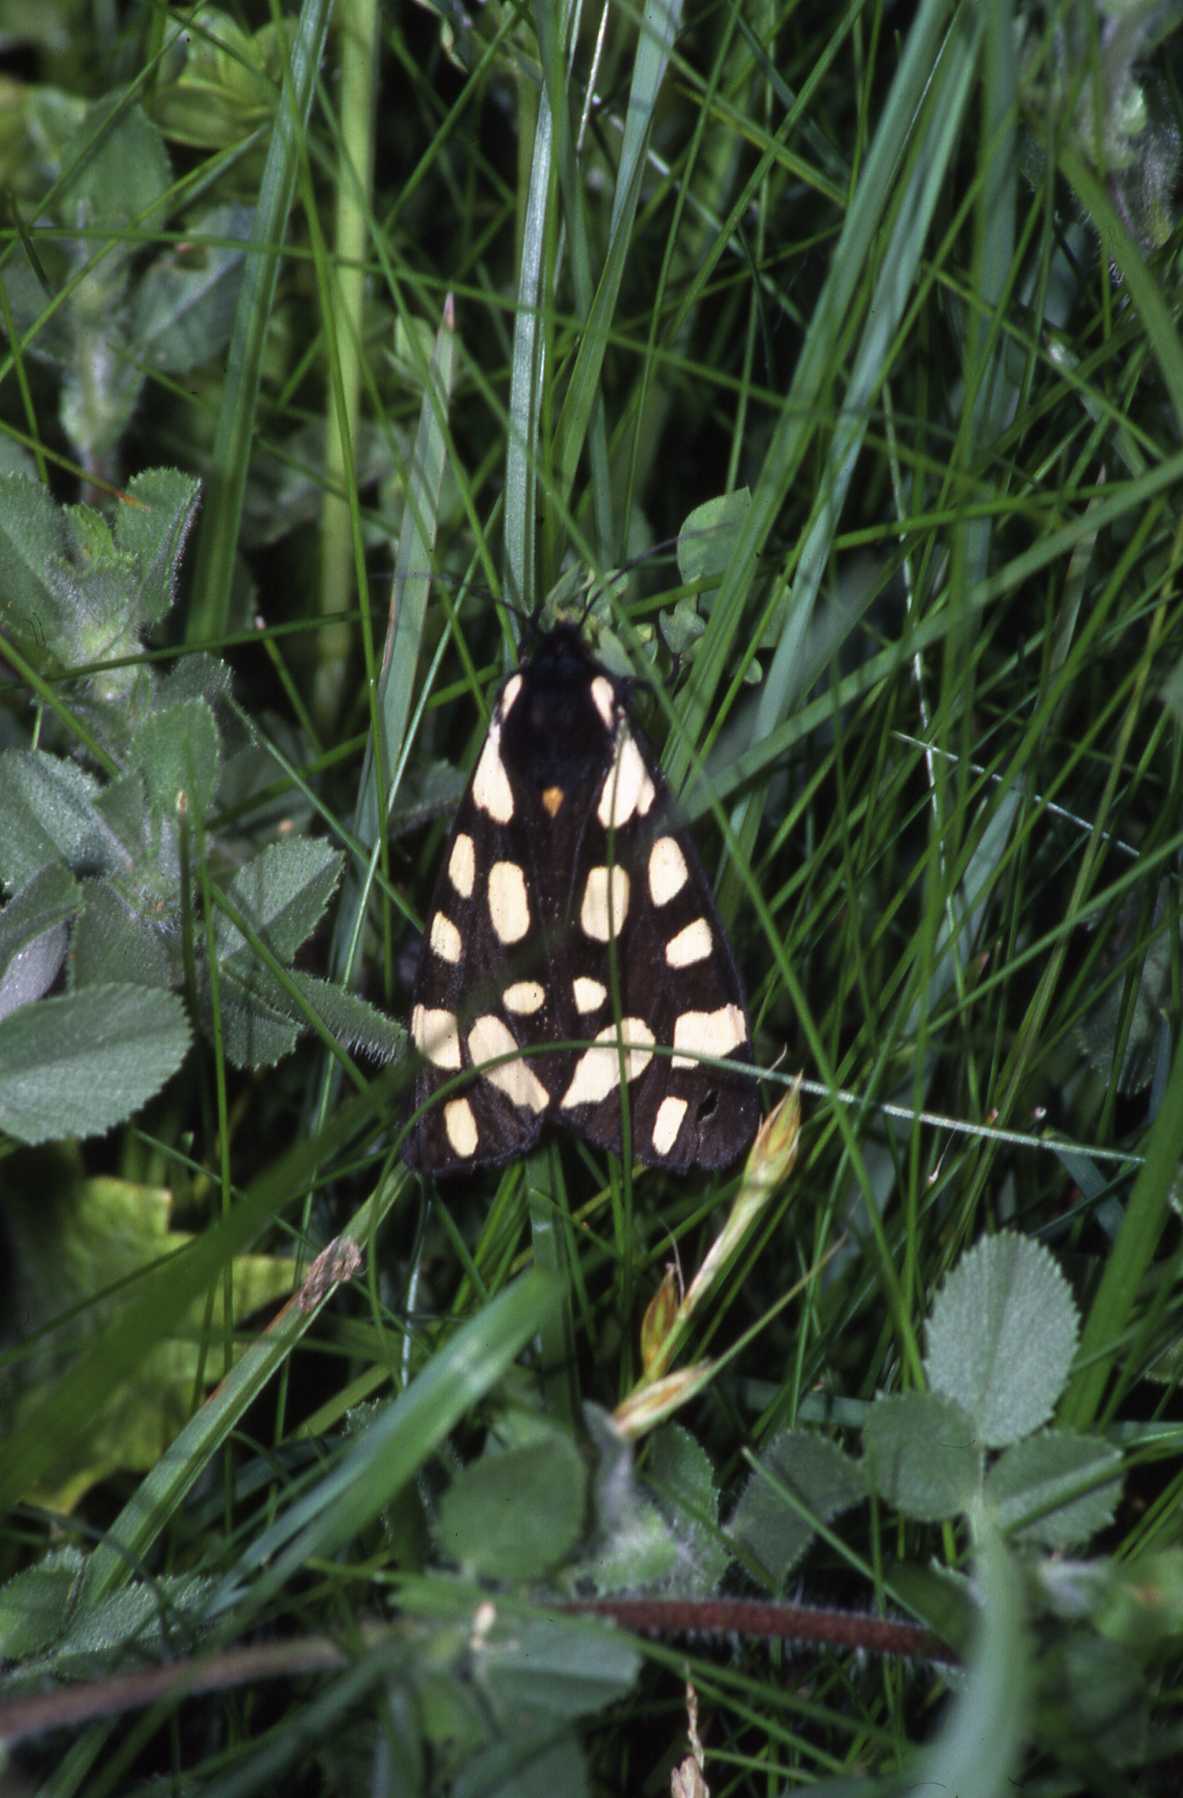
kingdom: Animalia
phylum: Arthropoda
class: Insecta
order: Lepidoptera
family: Erebidae
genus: Epicallia
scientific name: Epicallia villica
